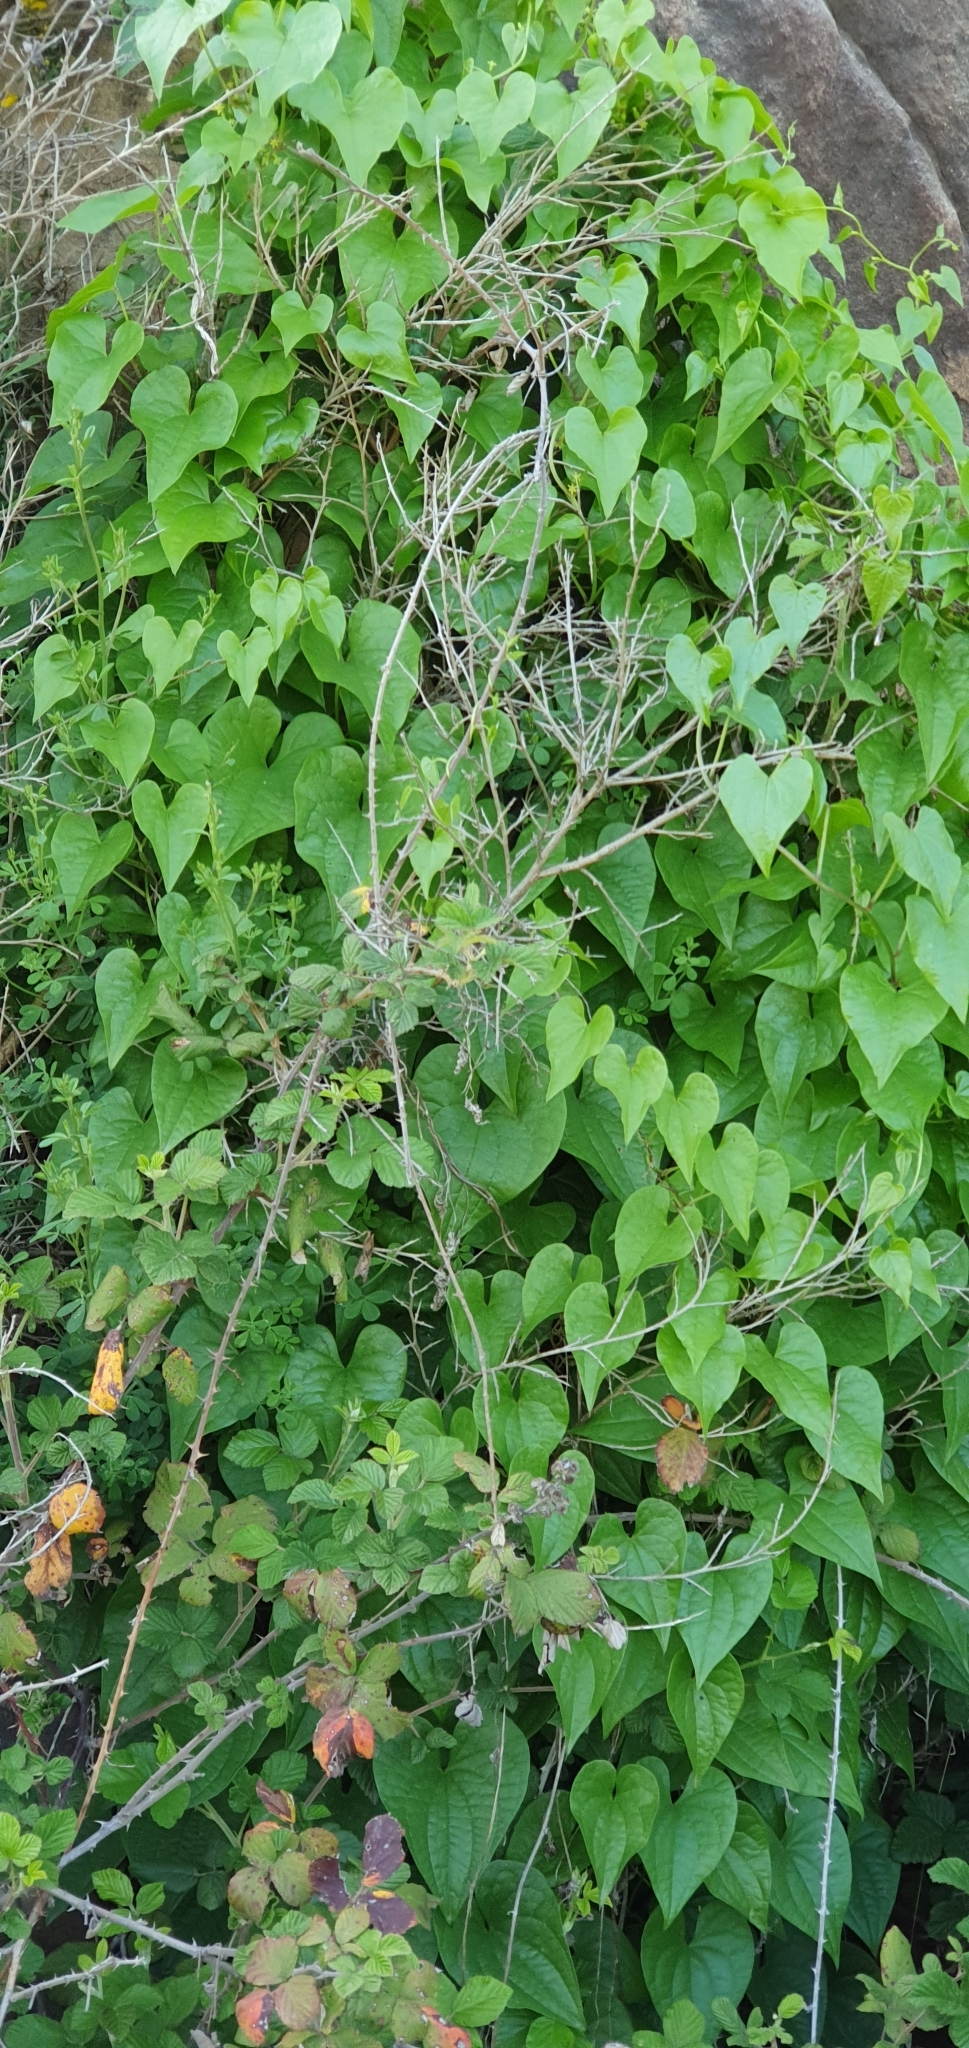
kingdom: Plantae
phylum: Tracheophyta
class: Liliopsida
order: Dioscoreales
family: Dioscoreaceae
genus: Dioscorea
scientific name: Dioscorea communis
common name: Black-bindweed
